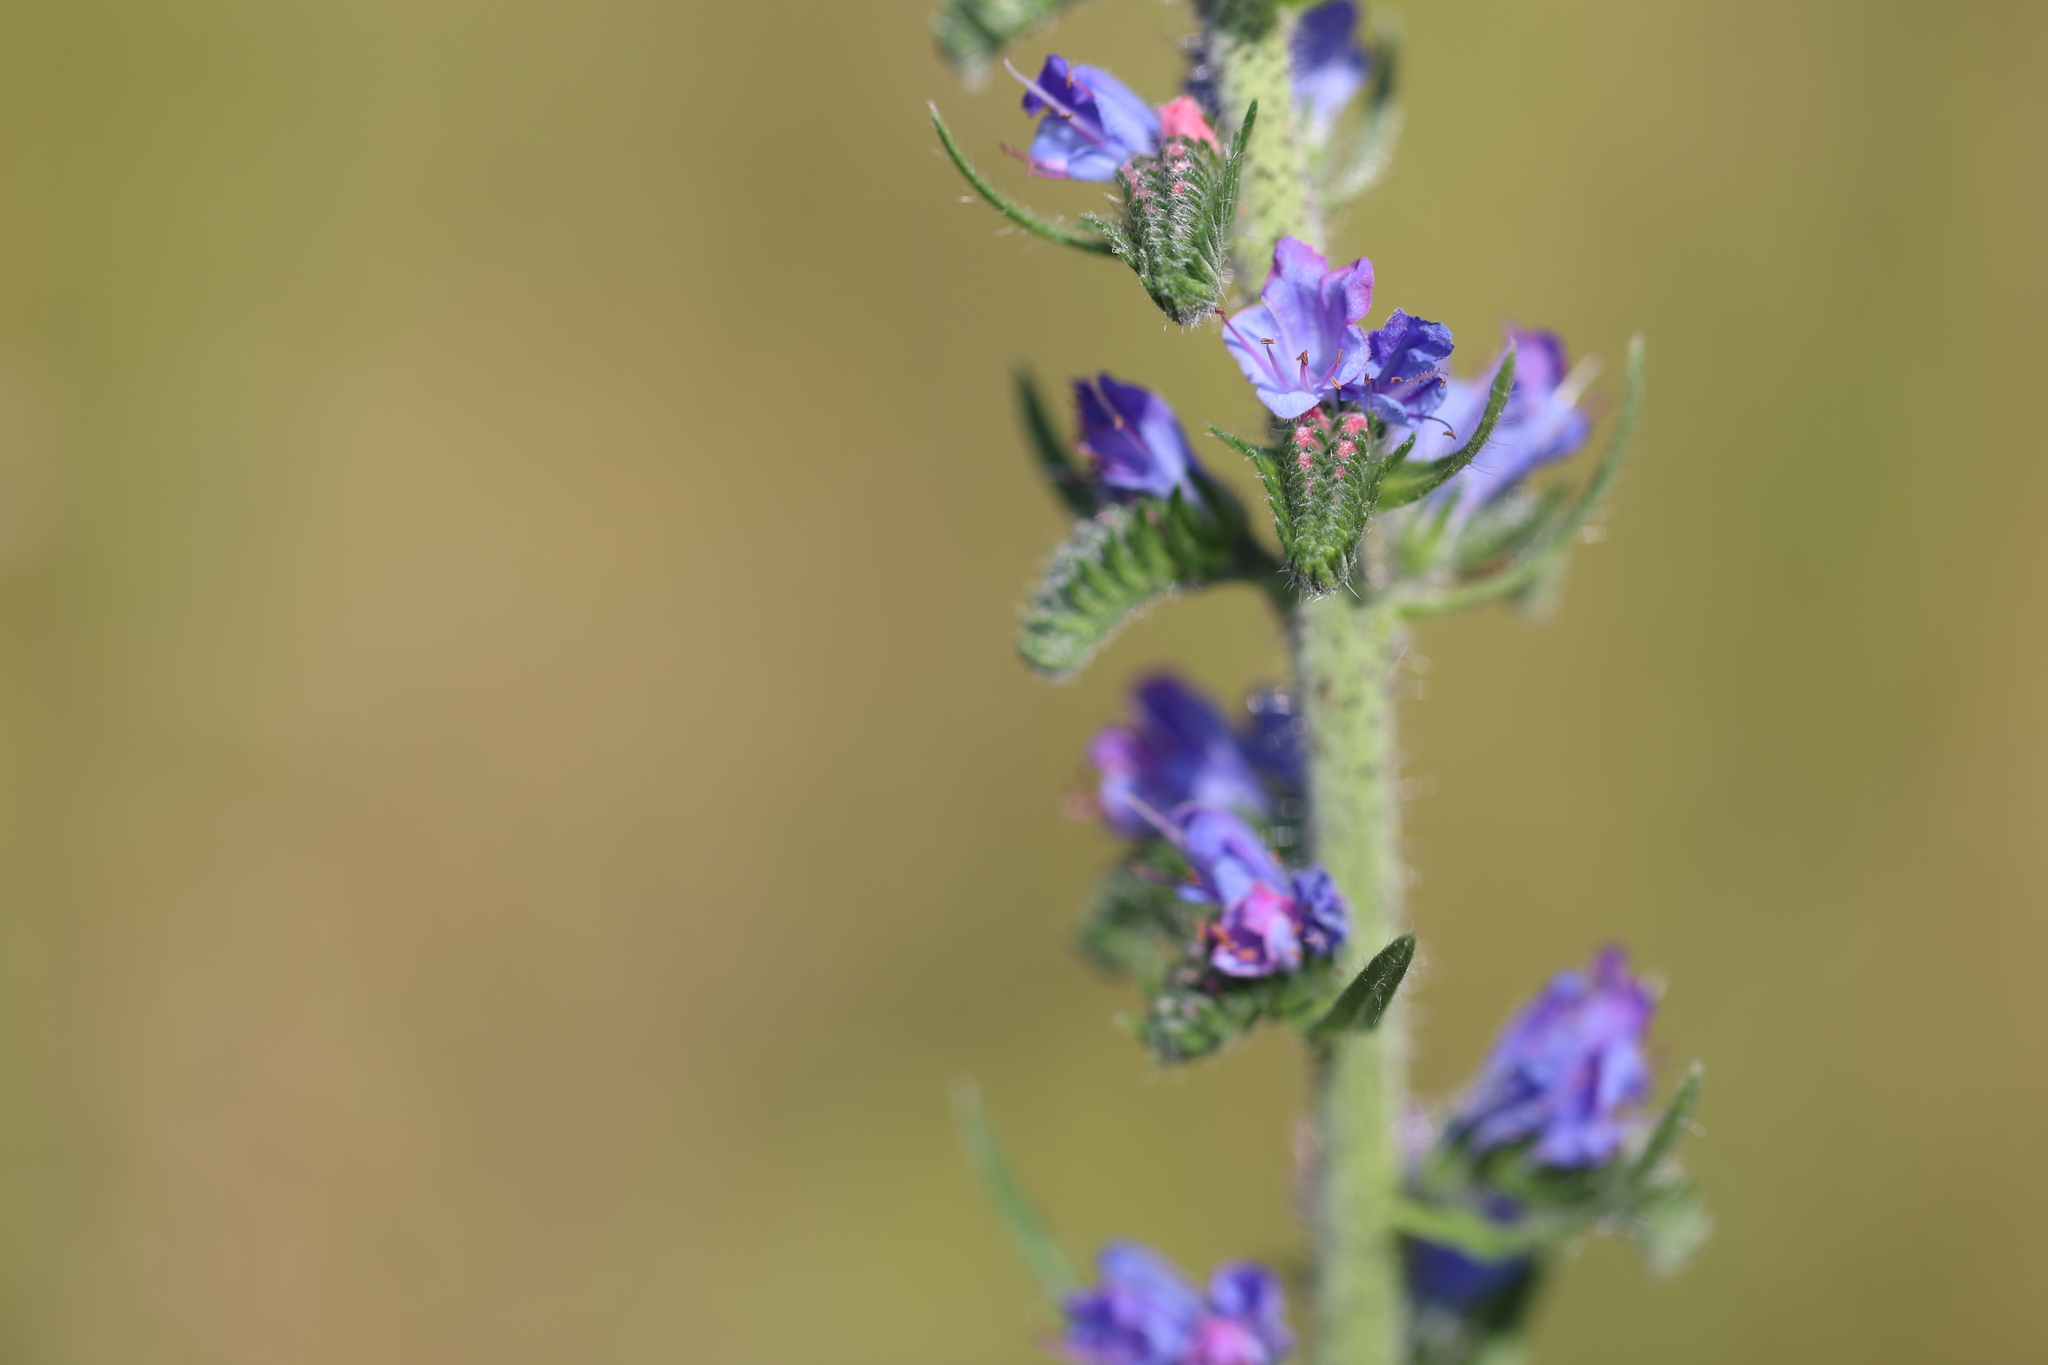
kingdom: Plantae
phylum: Tracheophyta
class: Magnoliopsida
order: Boraginales
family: Boraginaceae
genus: Echium
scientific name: Echium vulgare
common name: Common viper's bugloss
